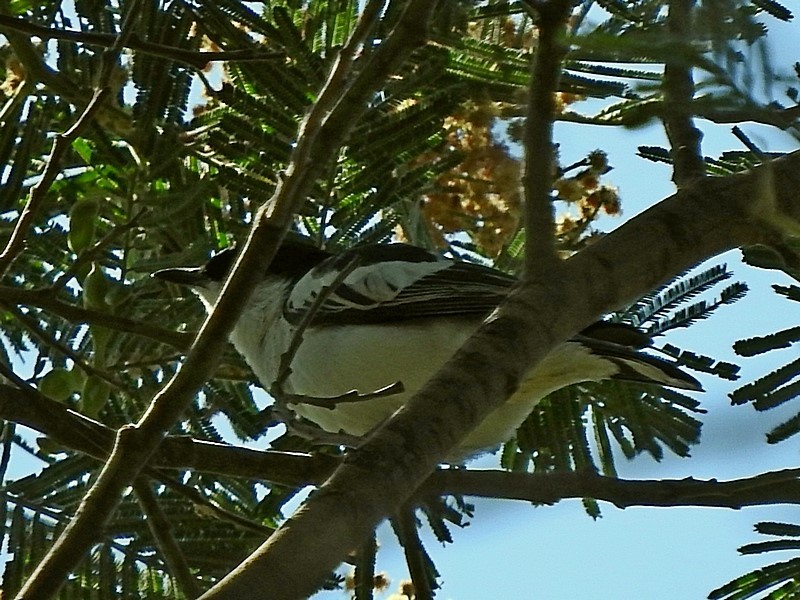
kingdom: Animalia
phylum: Chordata
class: Aves
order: Passeriformes
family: Campephagidae
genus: Lalage
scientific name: Lalage tricolor
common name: White-winged triller
